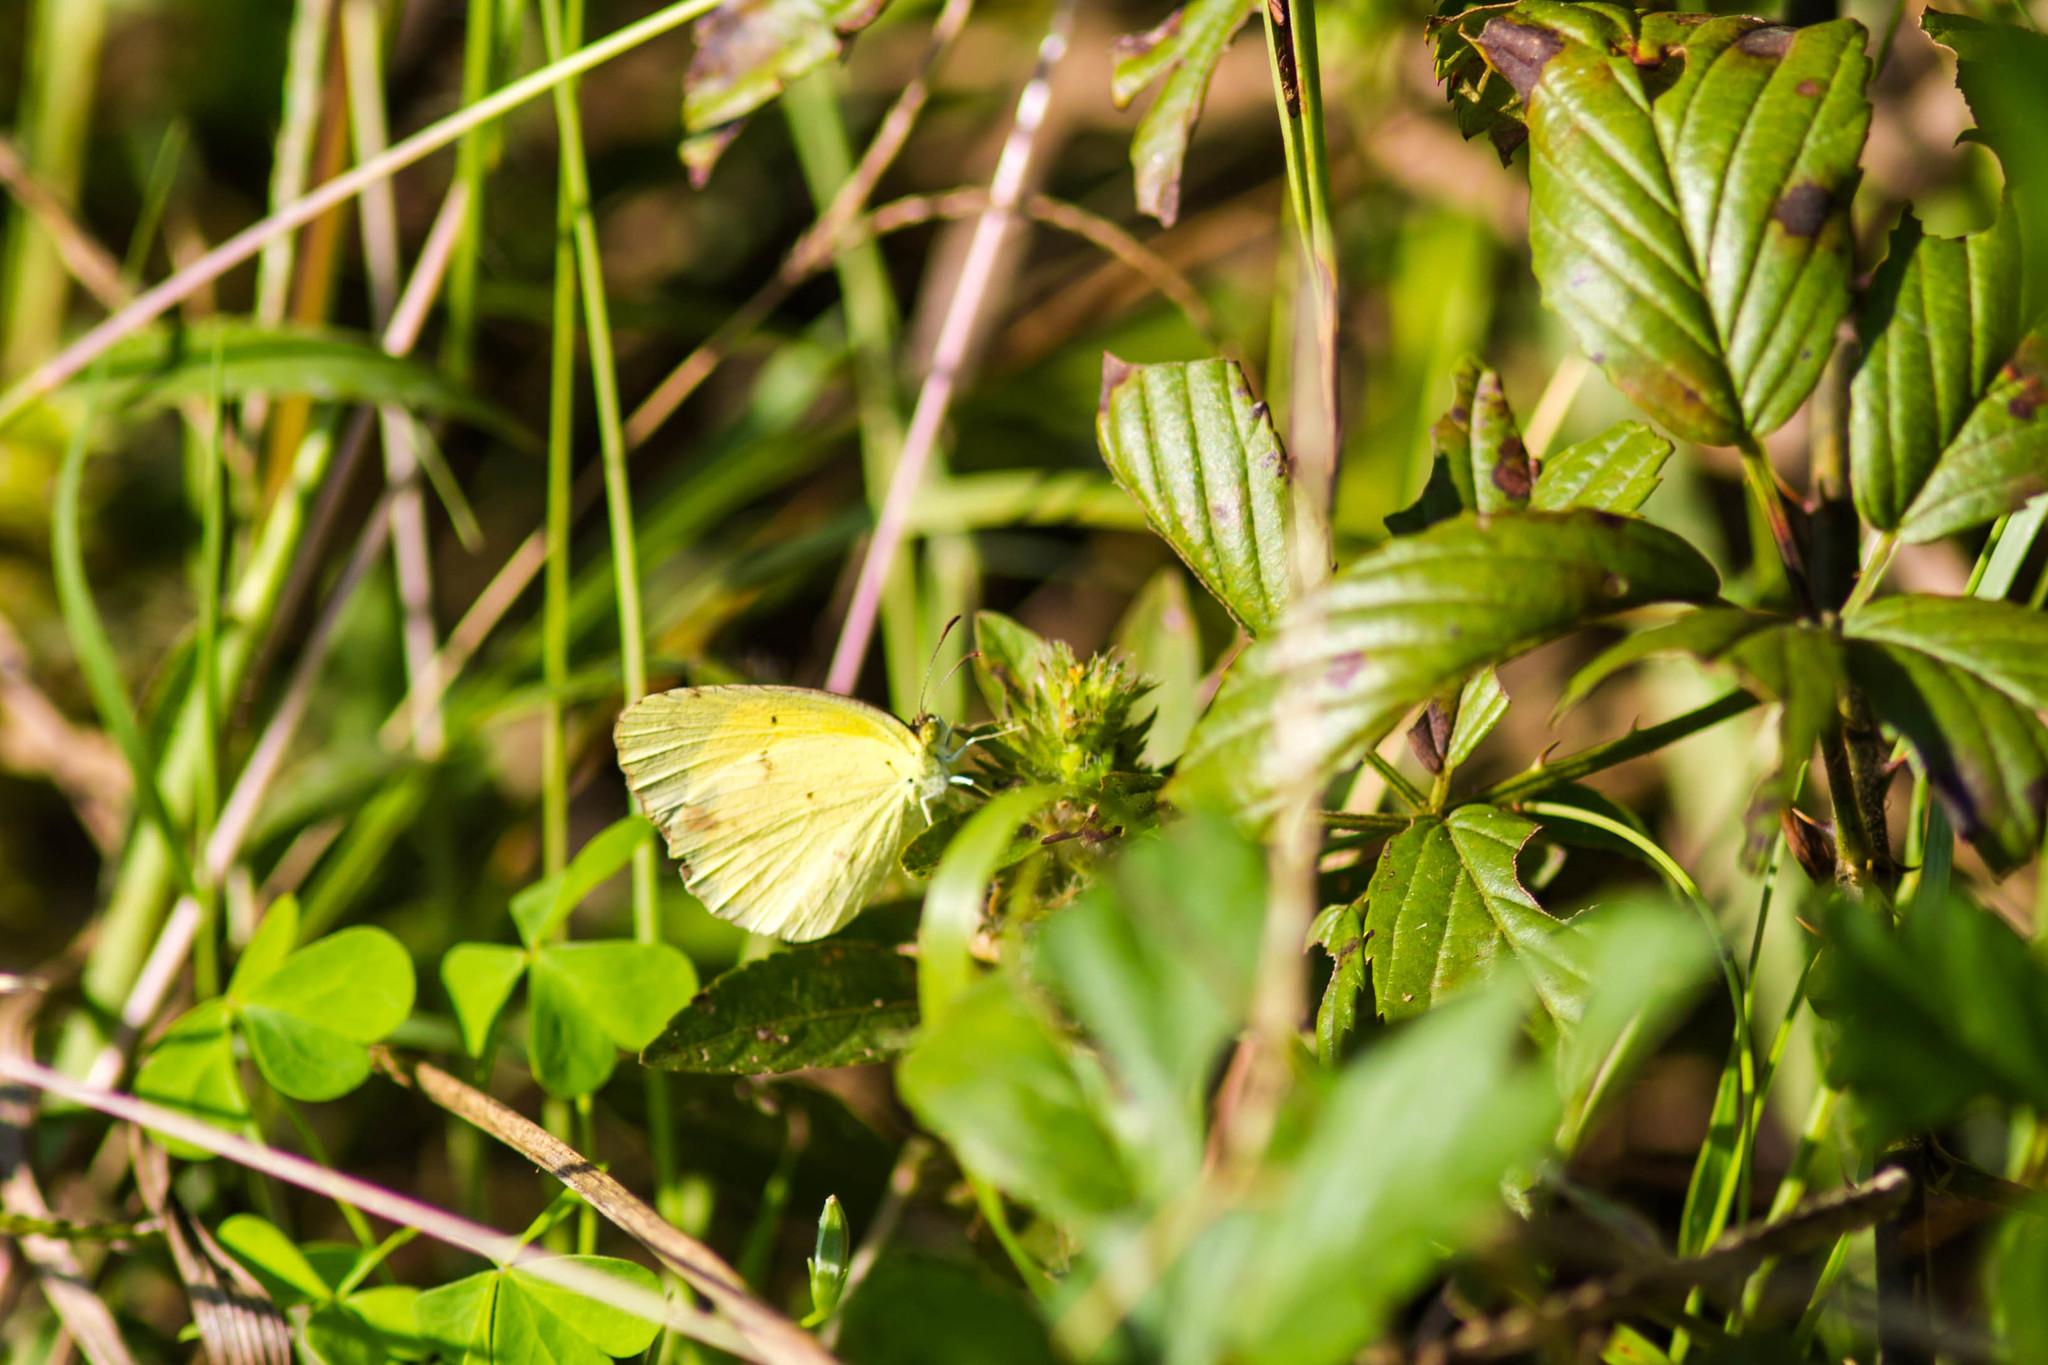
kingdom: Animalia
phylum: Arthropoda
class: Insecta
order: Lepidoptera
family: Pieridae
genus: Pyrisitia
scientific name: Pyrisitia lisa
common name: Little yellow
